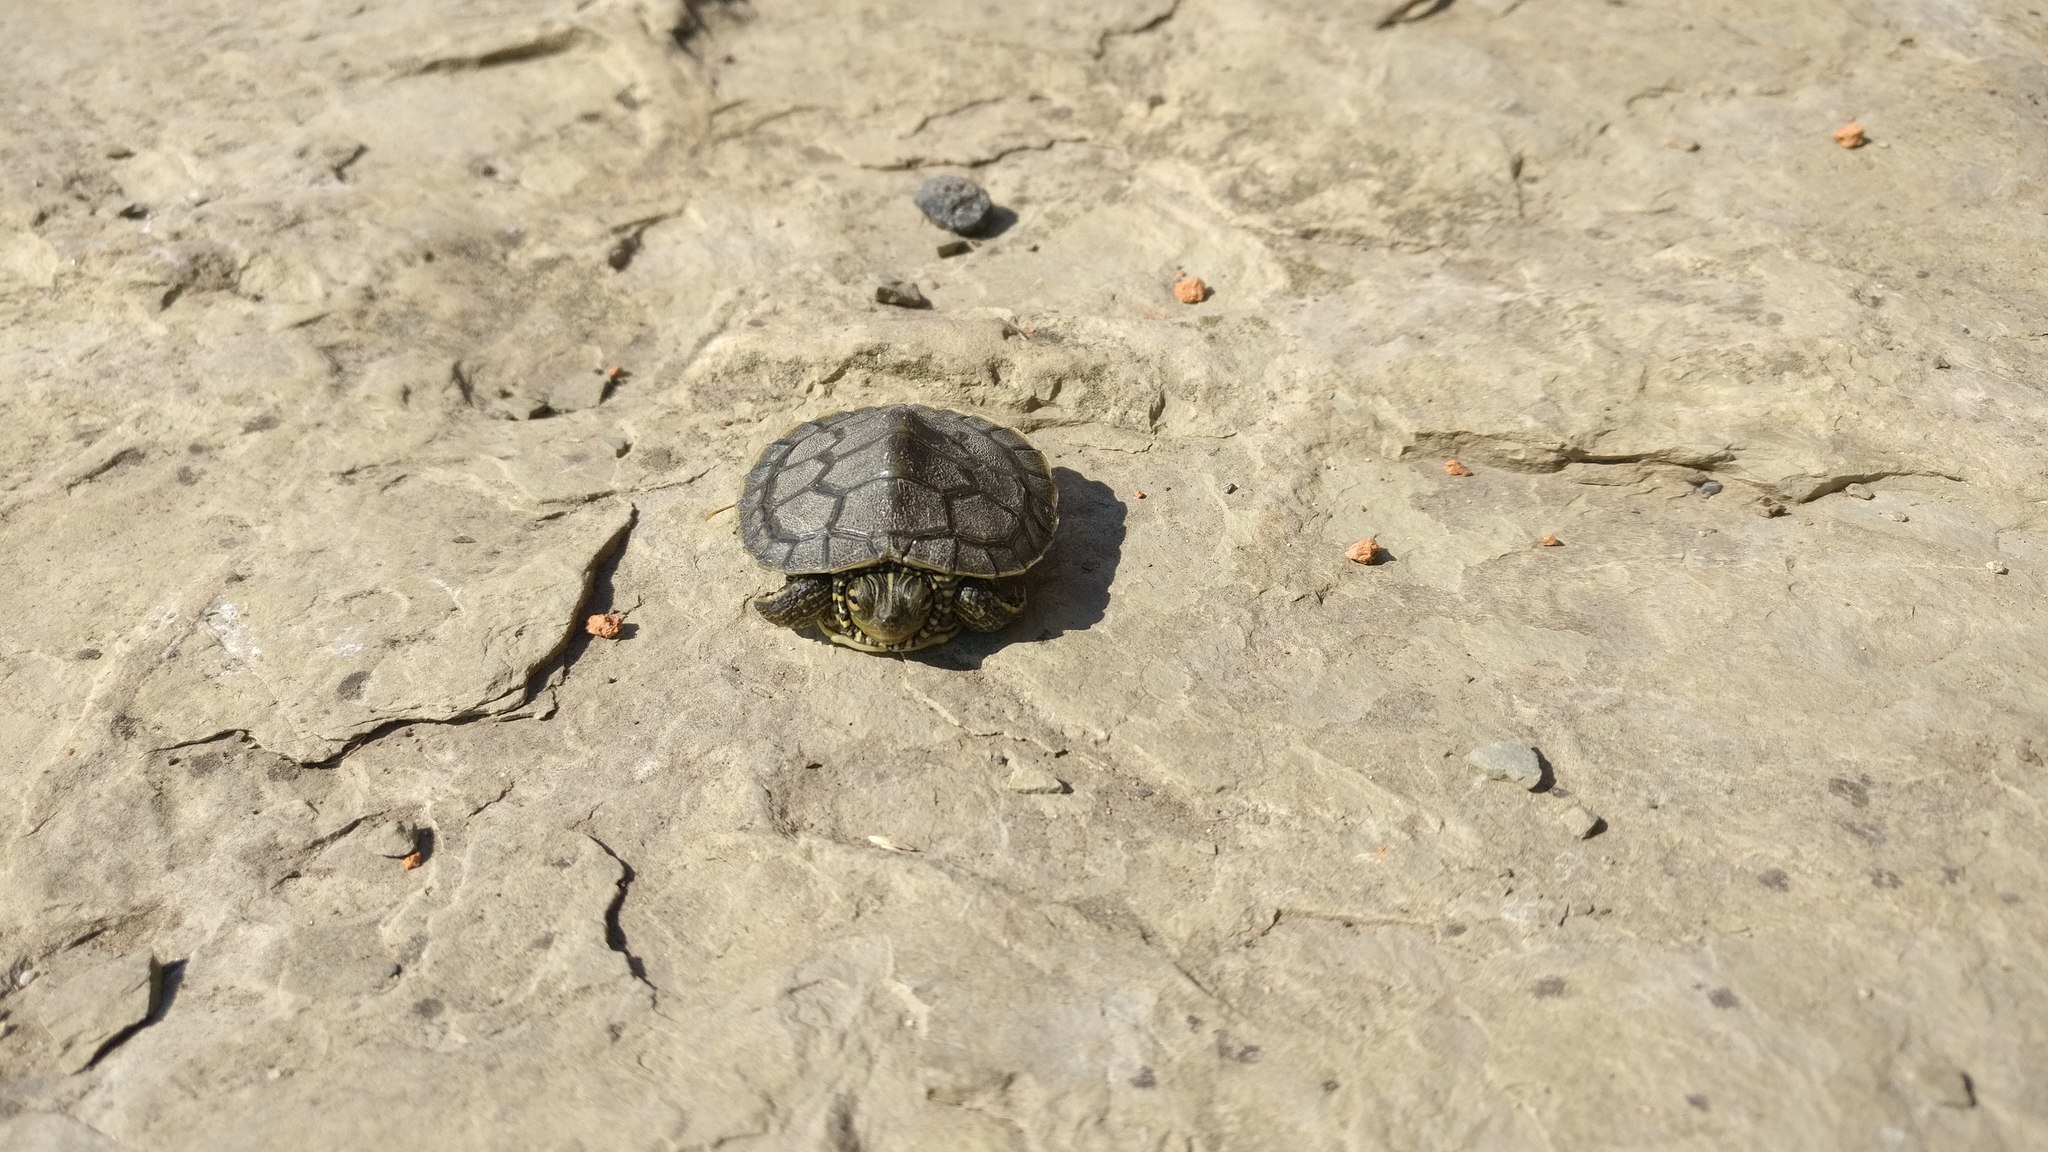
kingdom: Animalia
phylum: Chordata
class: Testudines
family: Emydidae
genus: Graptemys
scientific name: Graptemys geographica
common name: Common map turtle
